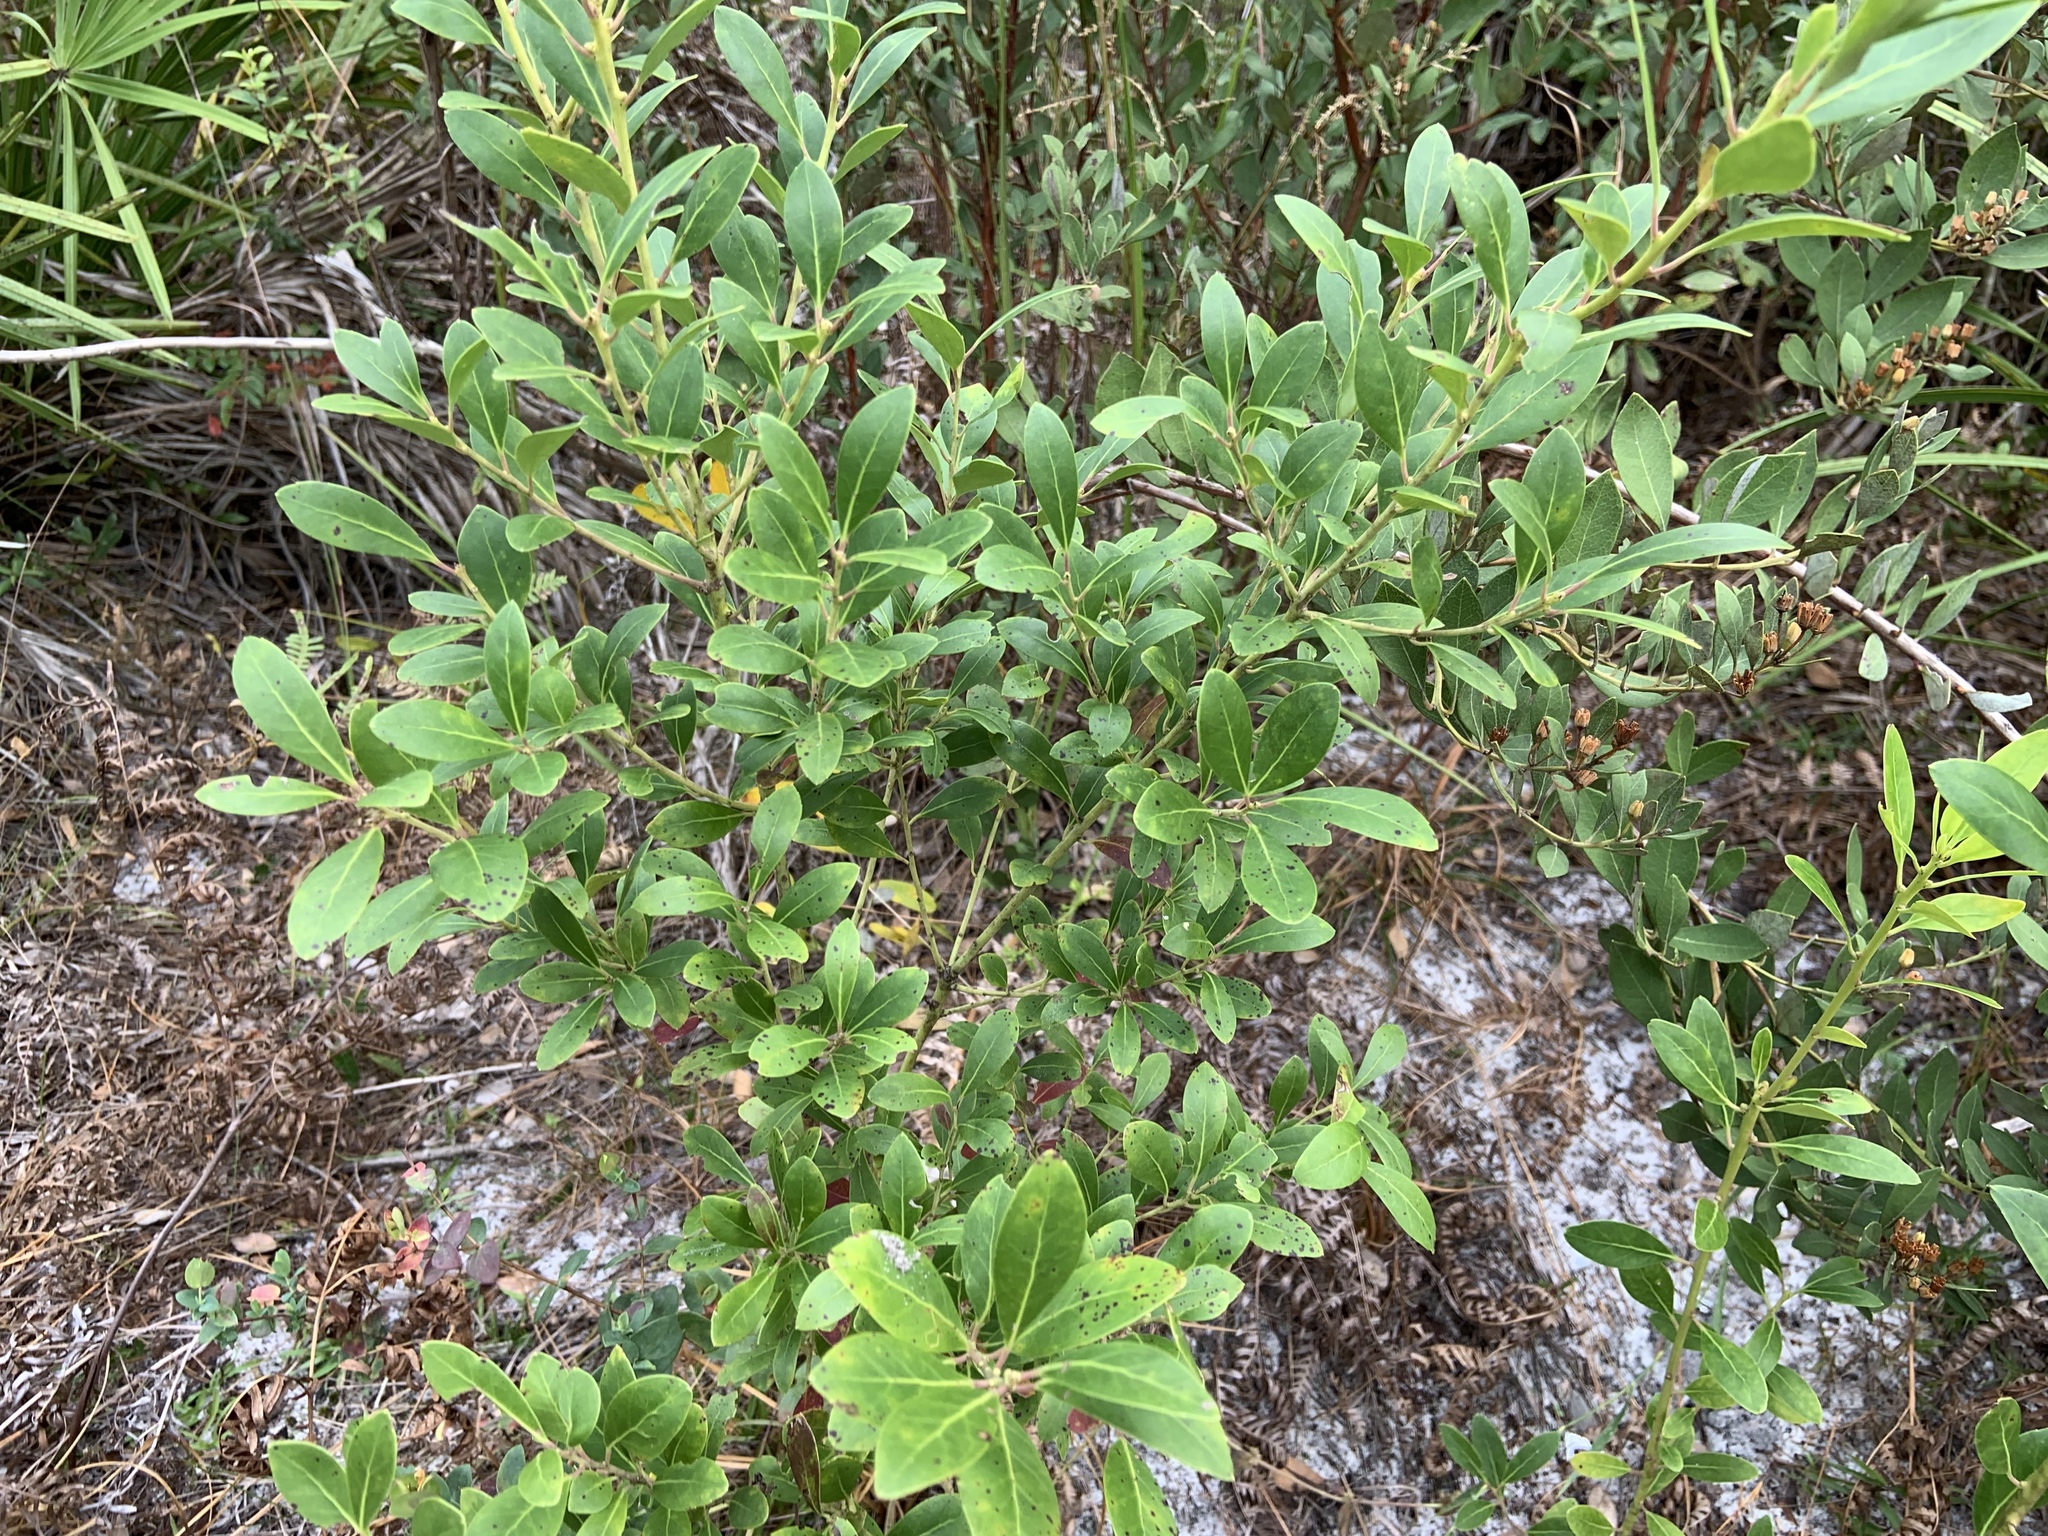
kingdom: Plantae
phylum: Tracheophyta
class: Magnoliopsida
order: Aquifoliales
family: Aquifoliaceae
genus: Ilex
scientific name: Ilex glabra
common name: Bitter gallberry
